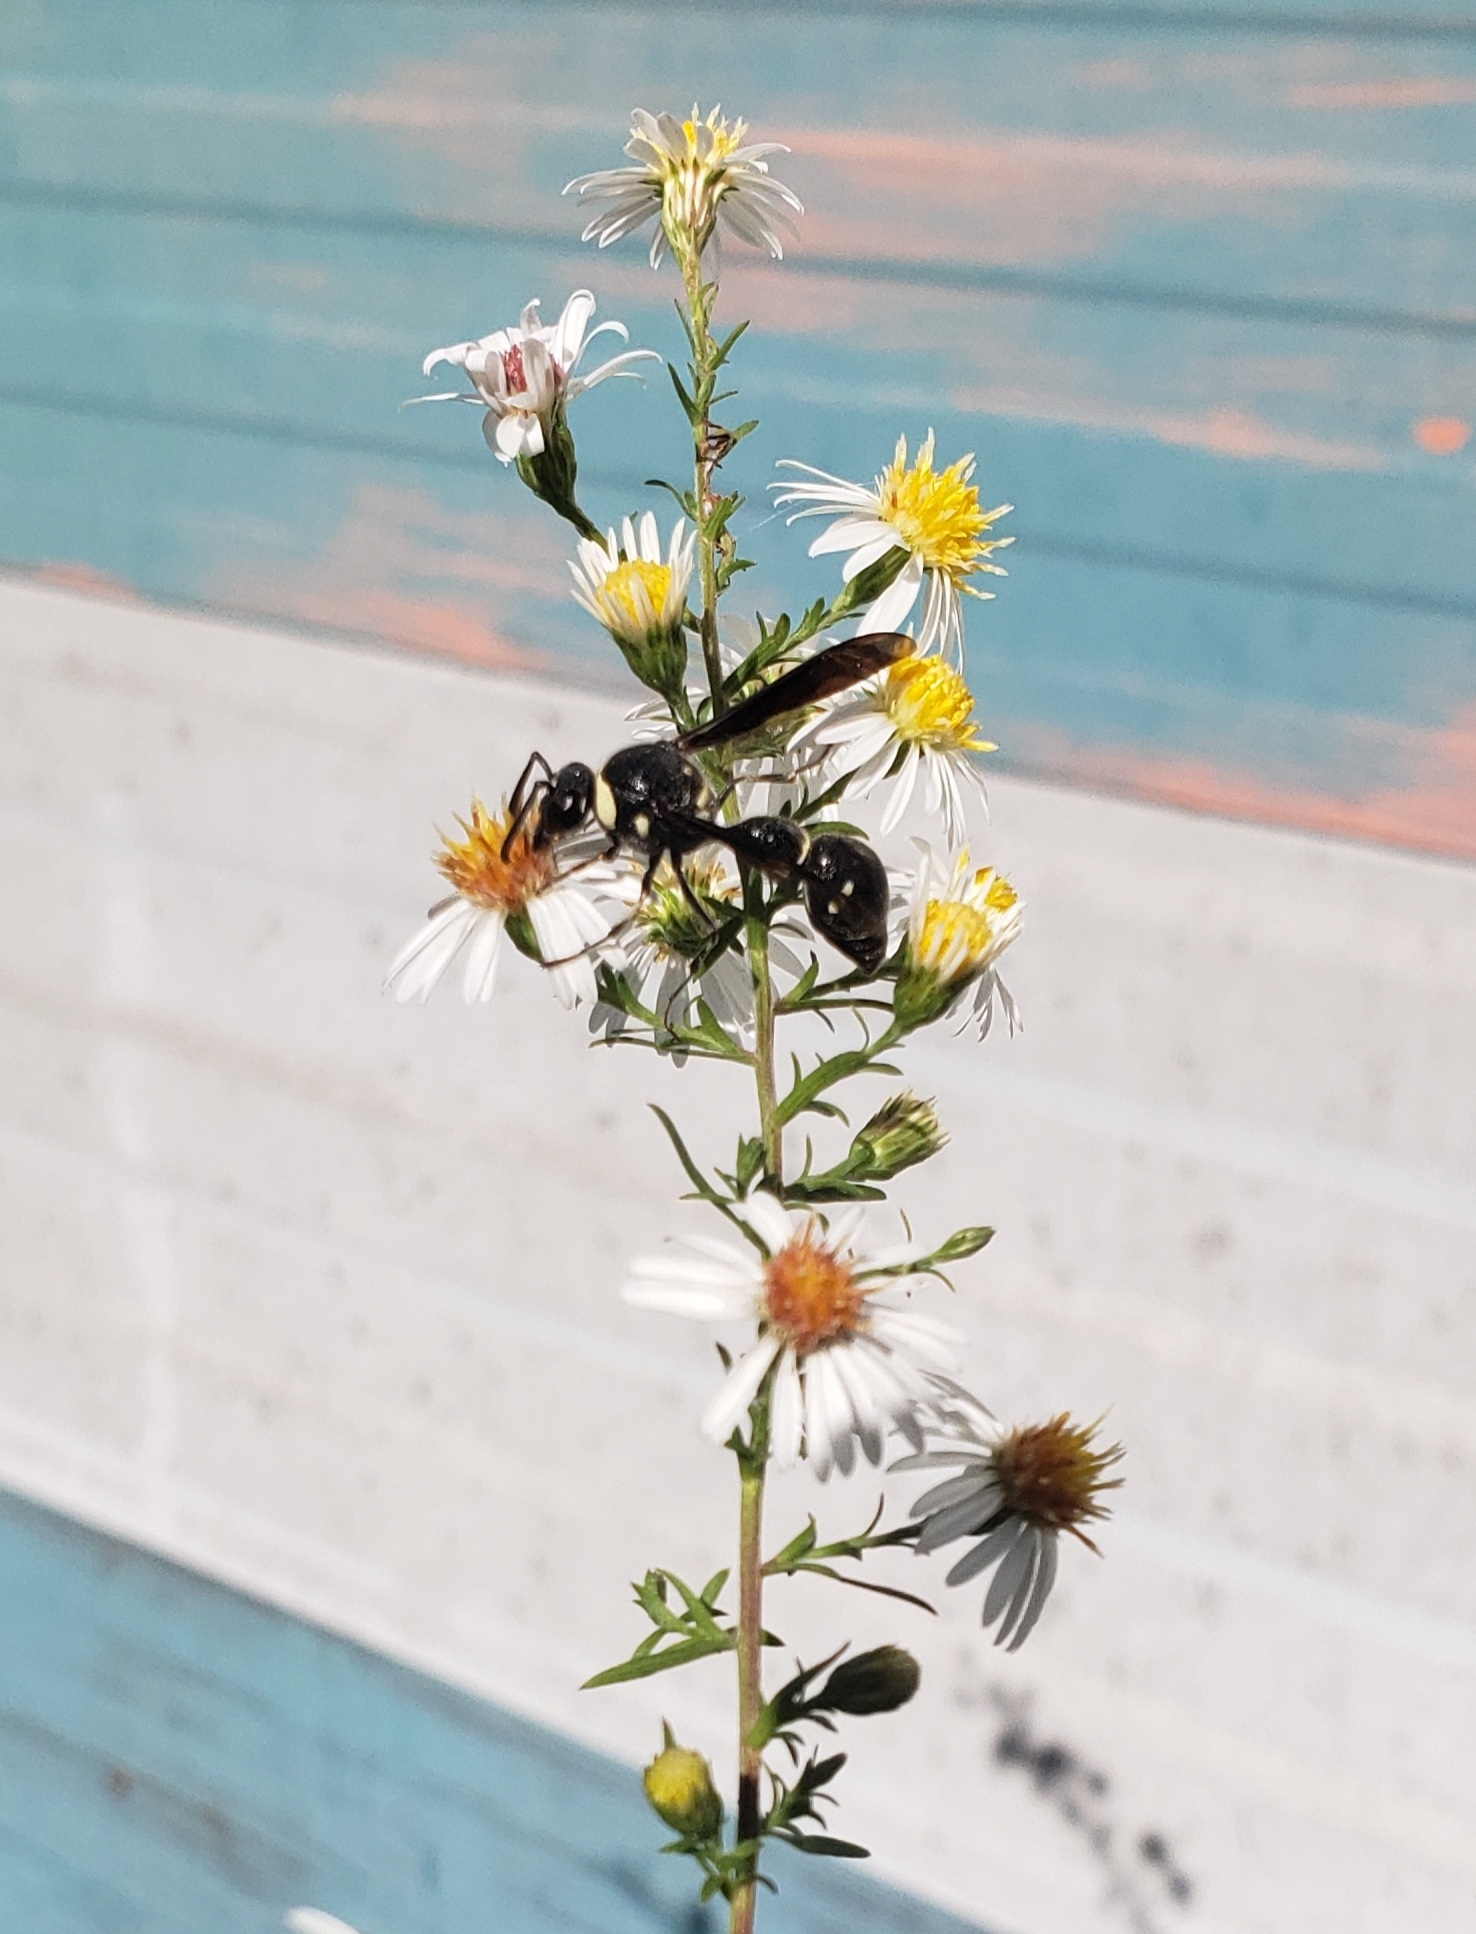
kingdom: Animalia
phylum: Arthropoda
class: Insecta
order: Hymenoptera
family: Vespidae
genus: Eumenes
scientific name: Eumenes fraternus
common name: Fraternal potter wasp
